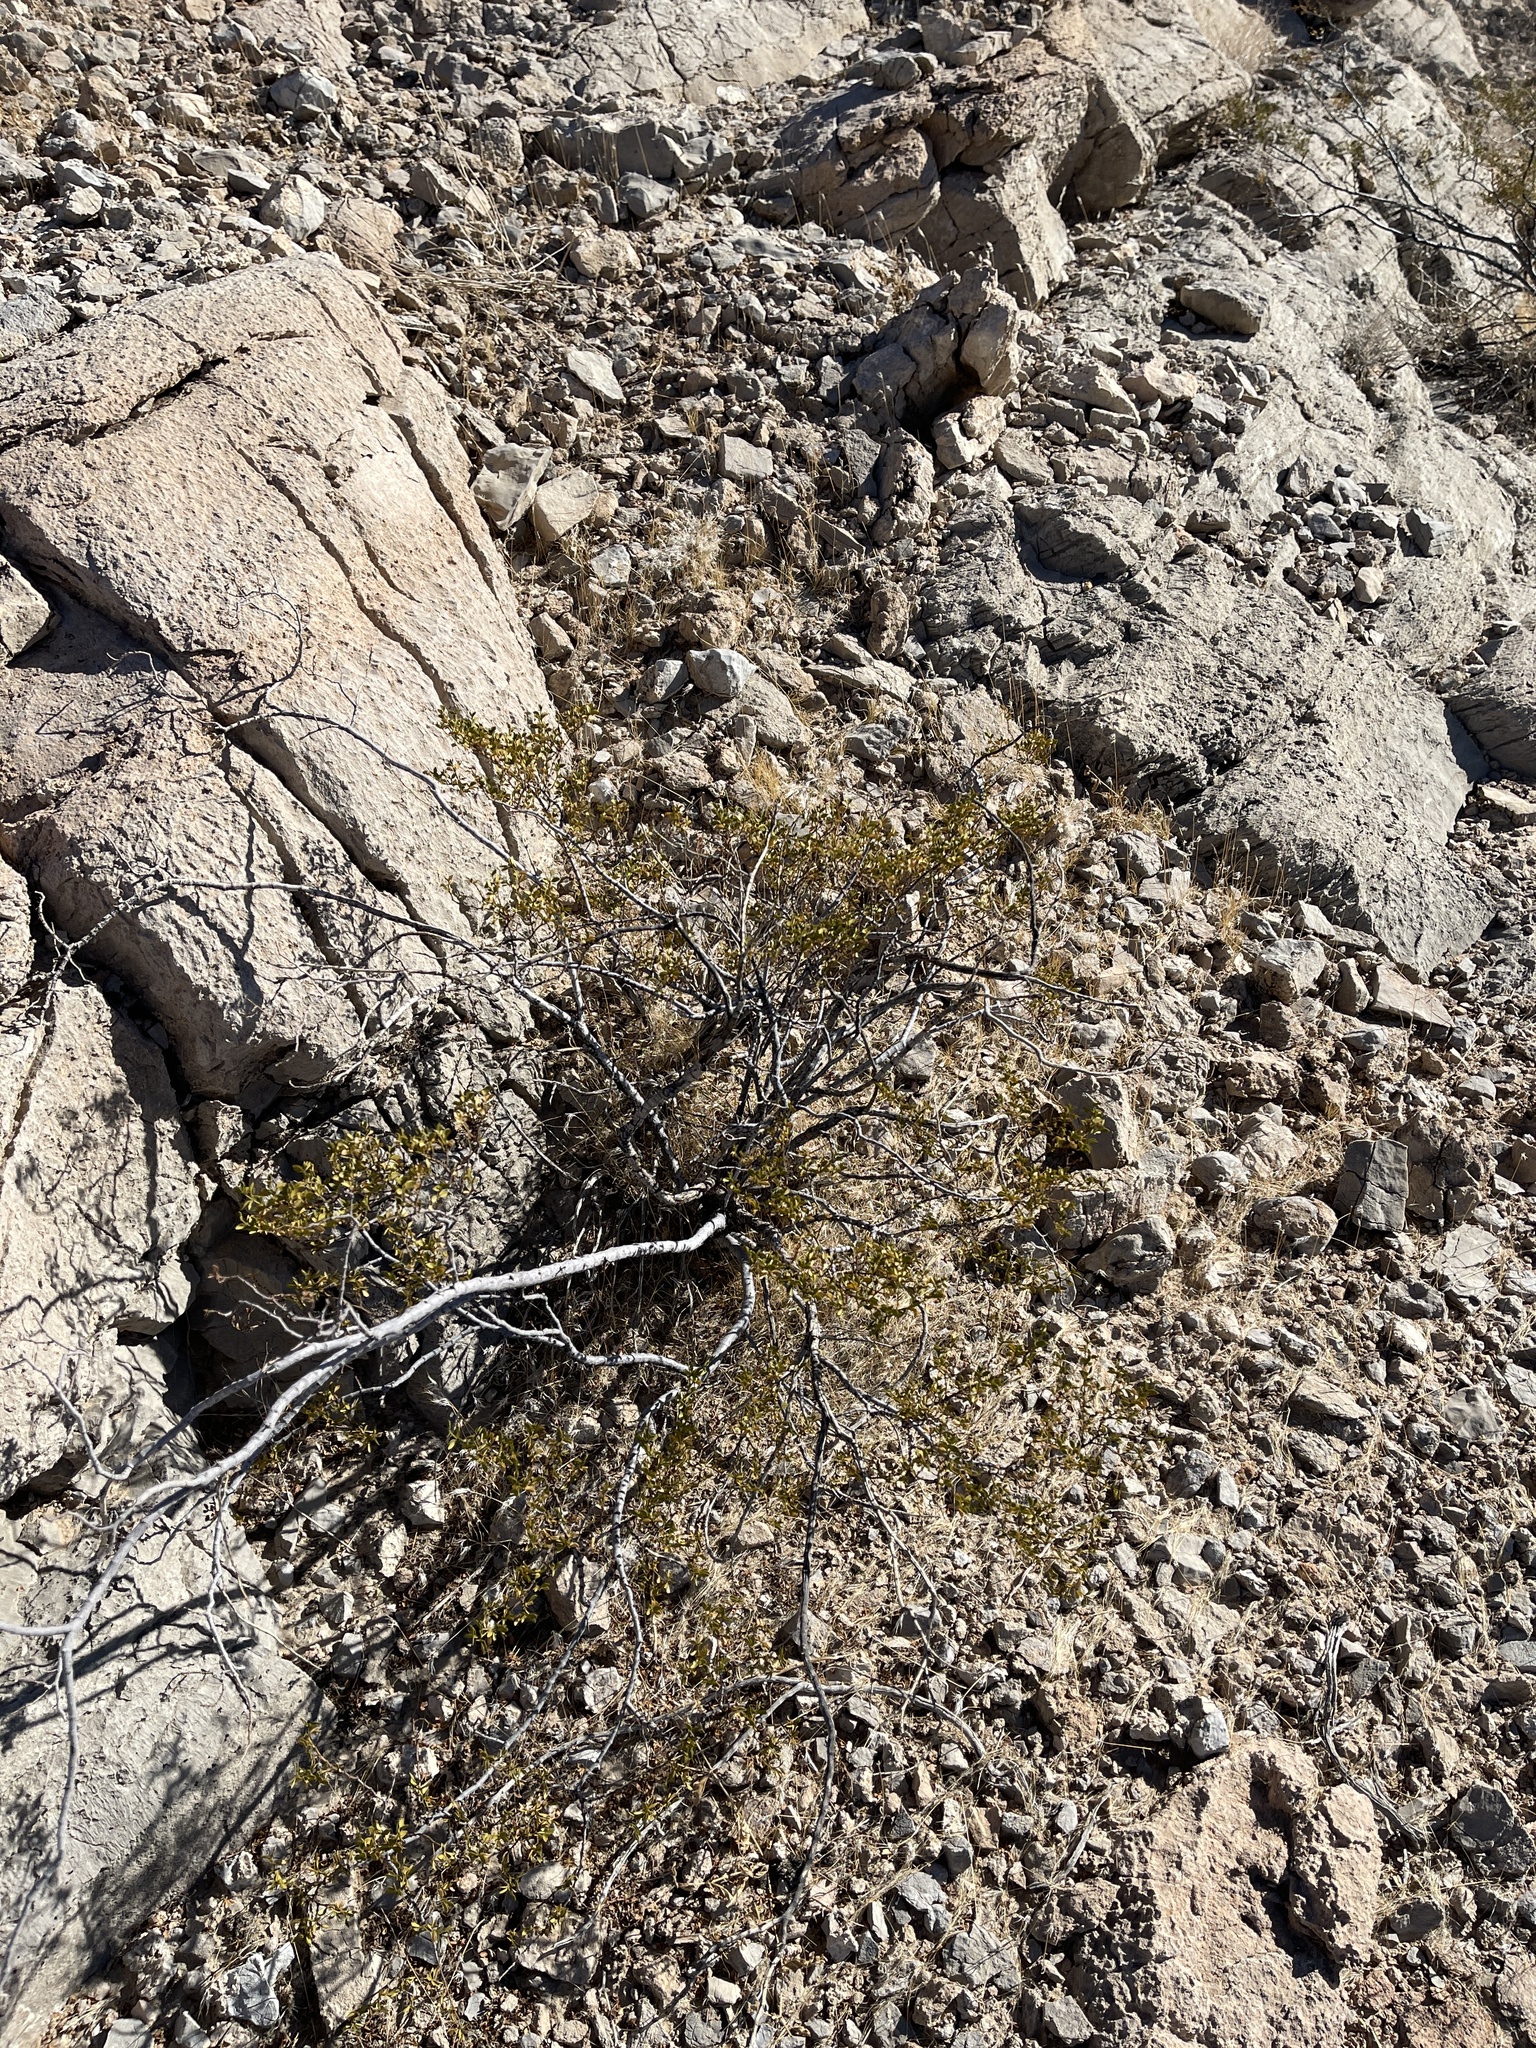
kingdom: Plantae
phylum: Tracheophyta
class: Magnoliopsida
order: Zygophyllales
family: Zygophyllaceae
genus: Larrea
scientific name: Larrea tridentata
